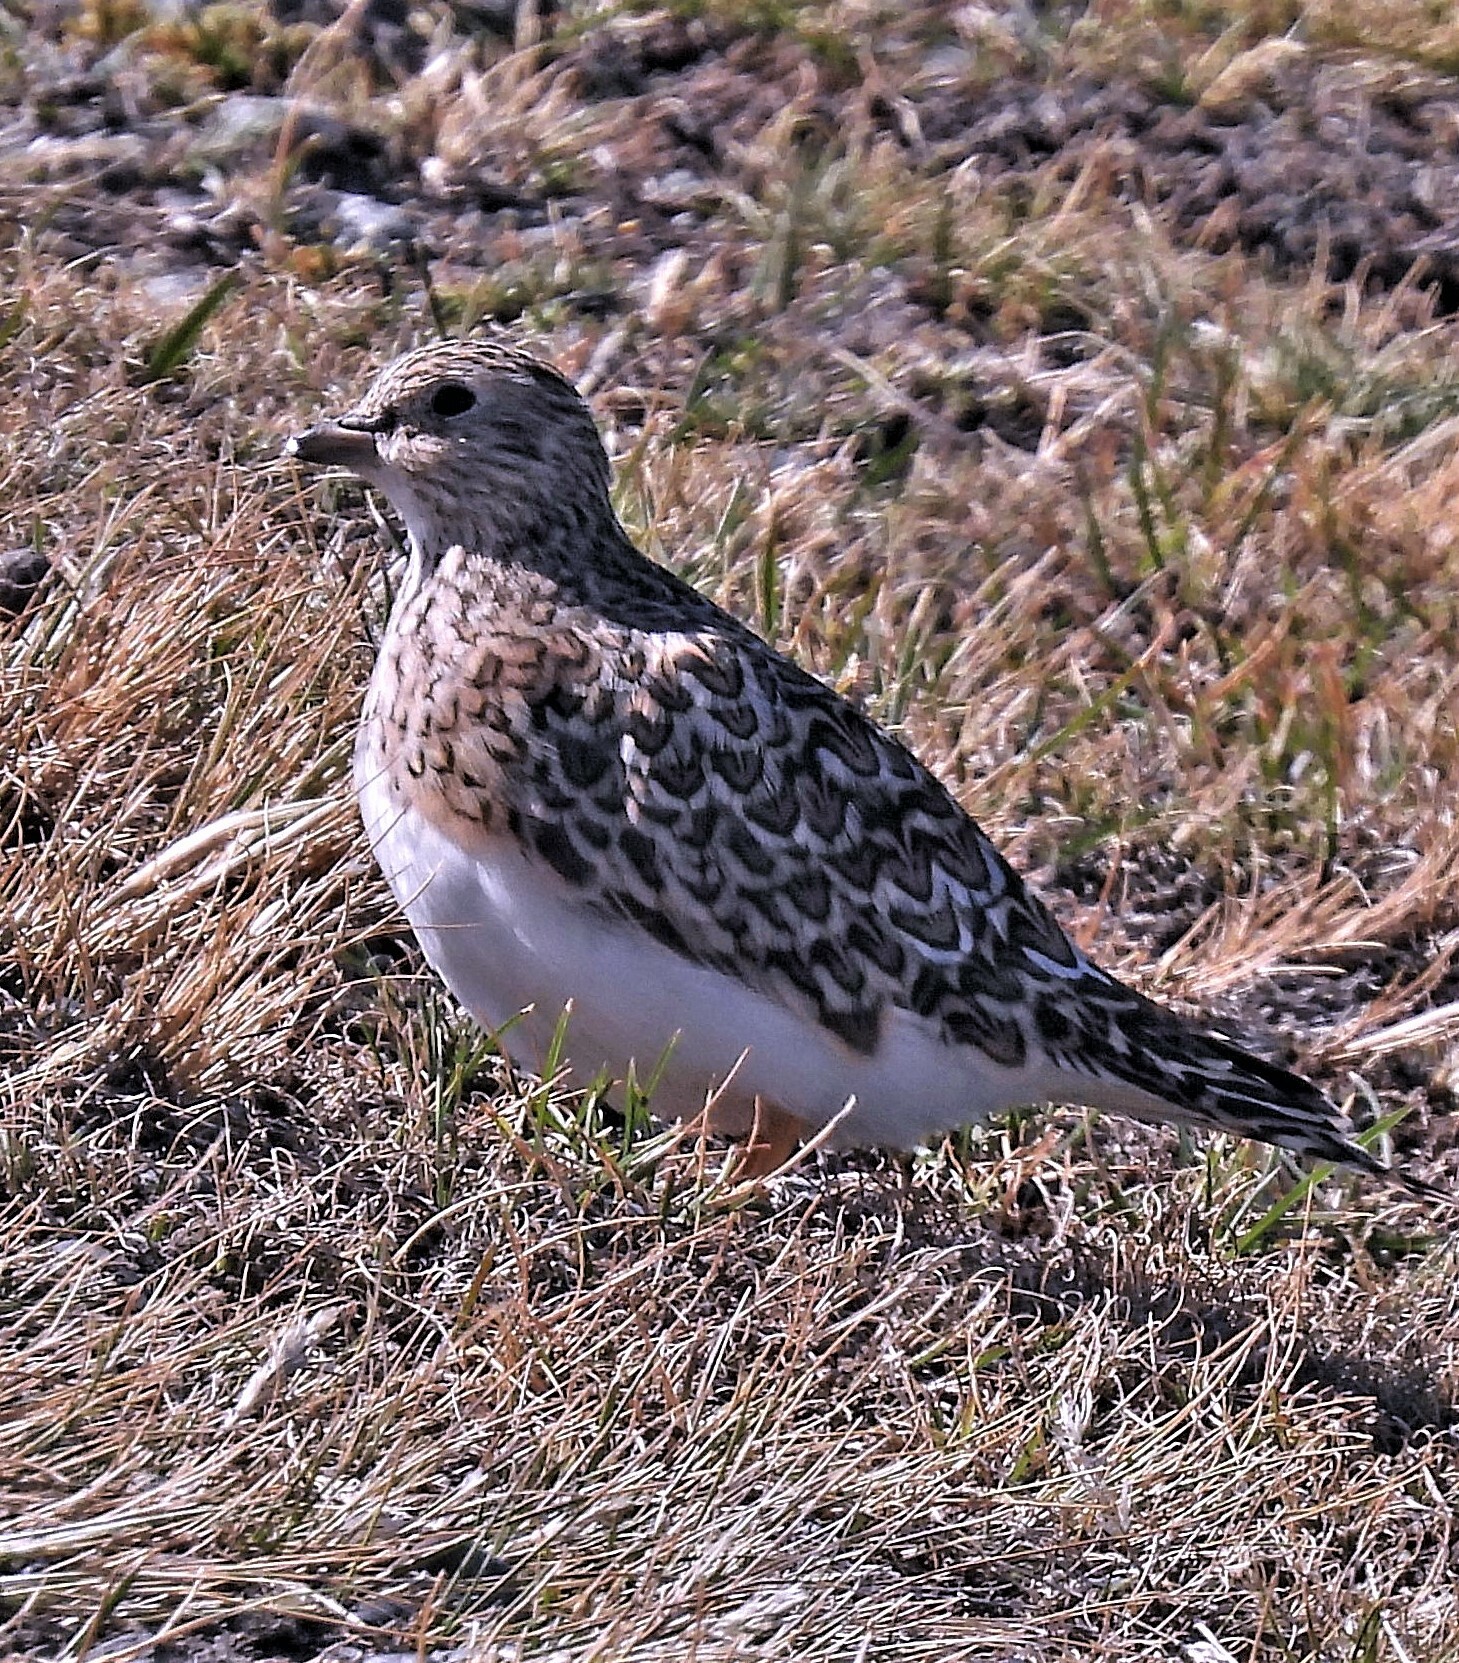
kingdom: Animalia
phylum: Chordata
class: Aves
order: Charadriiformes
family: Thinocoridae
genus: Thinocorus
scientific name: Thinocorus rumicivorus
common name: Least seedsnipe
